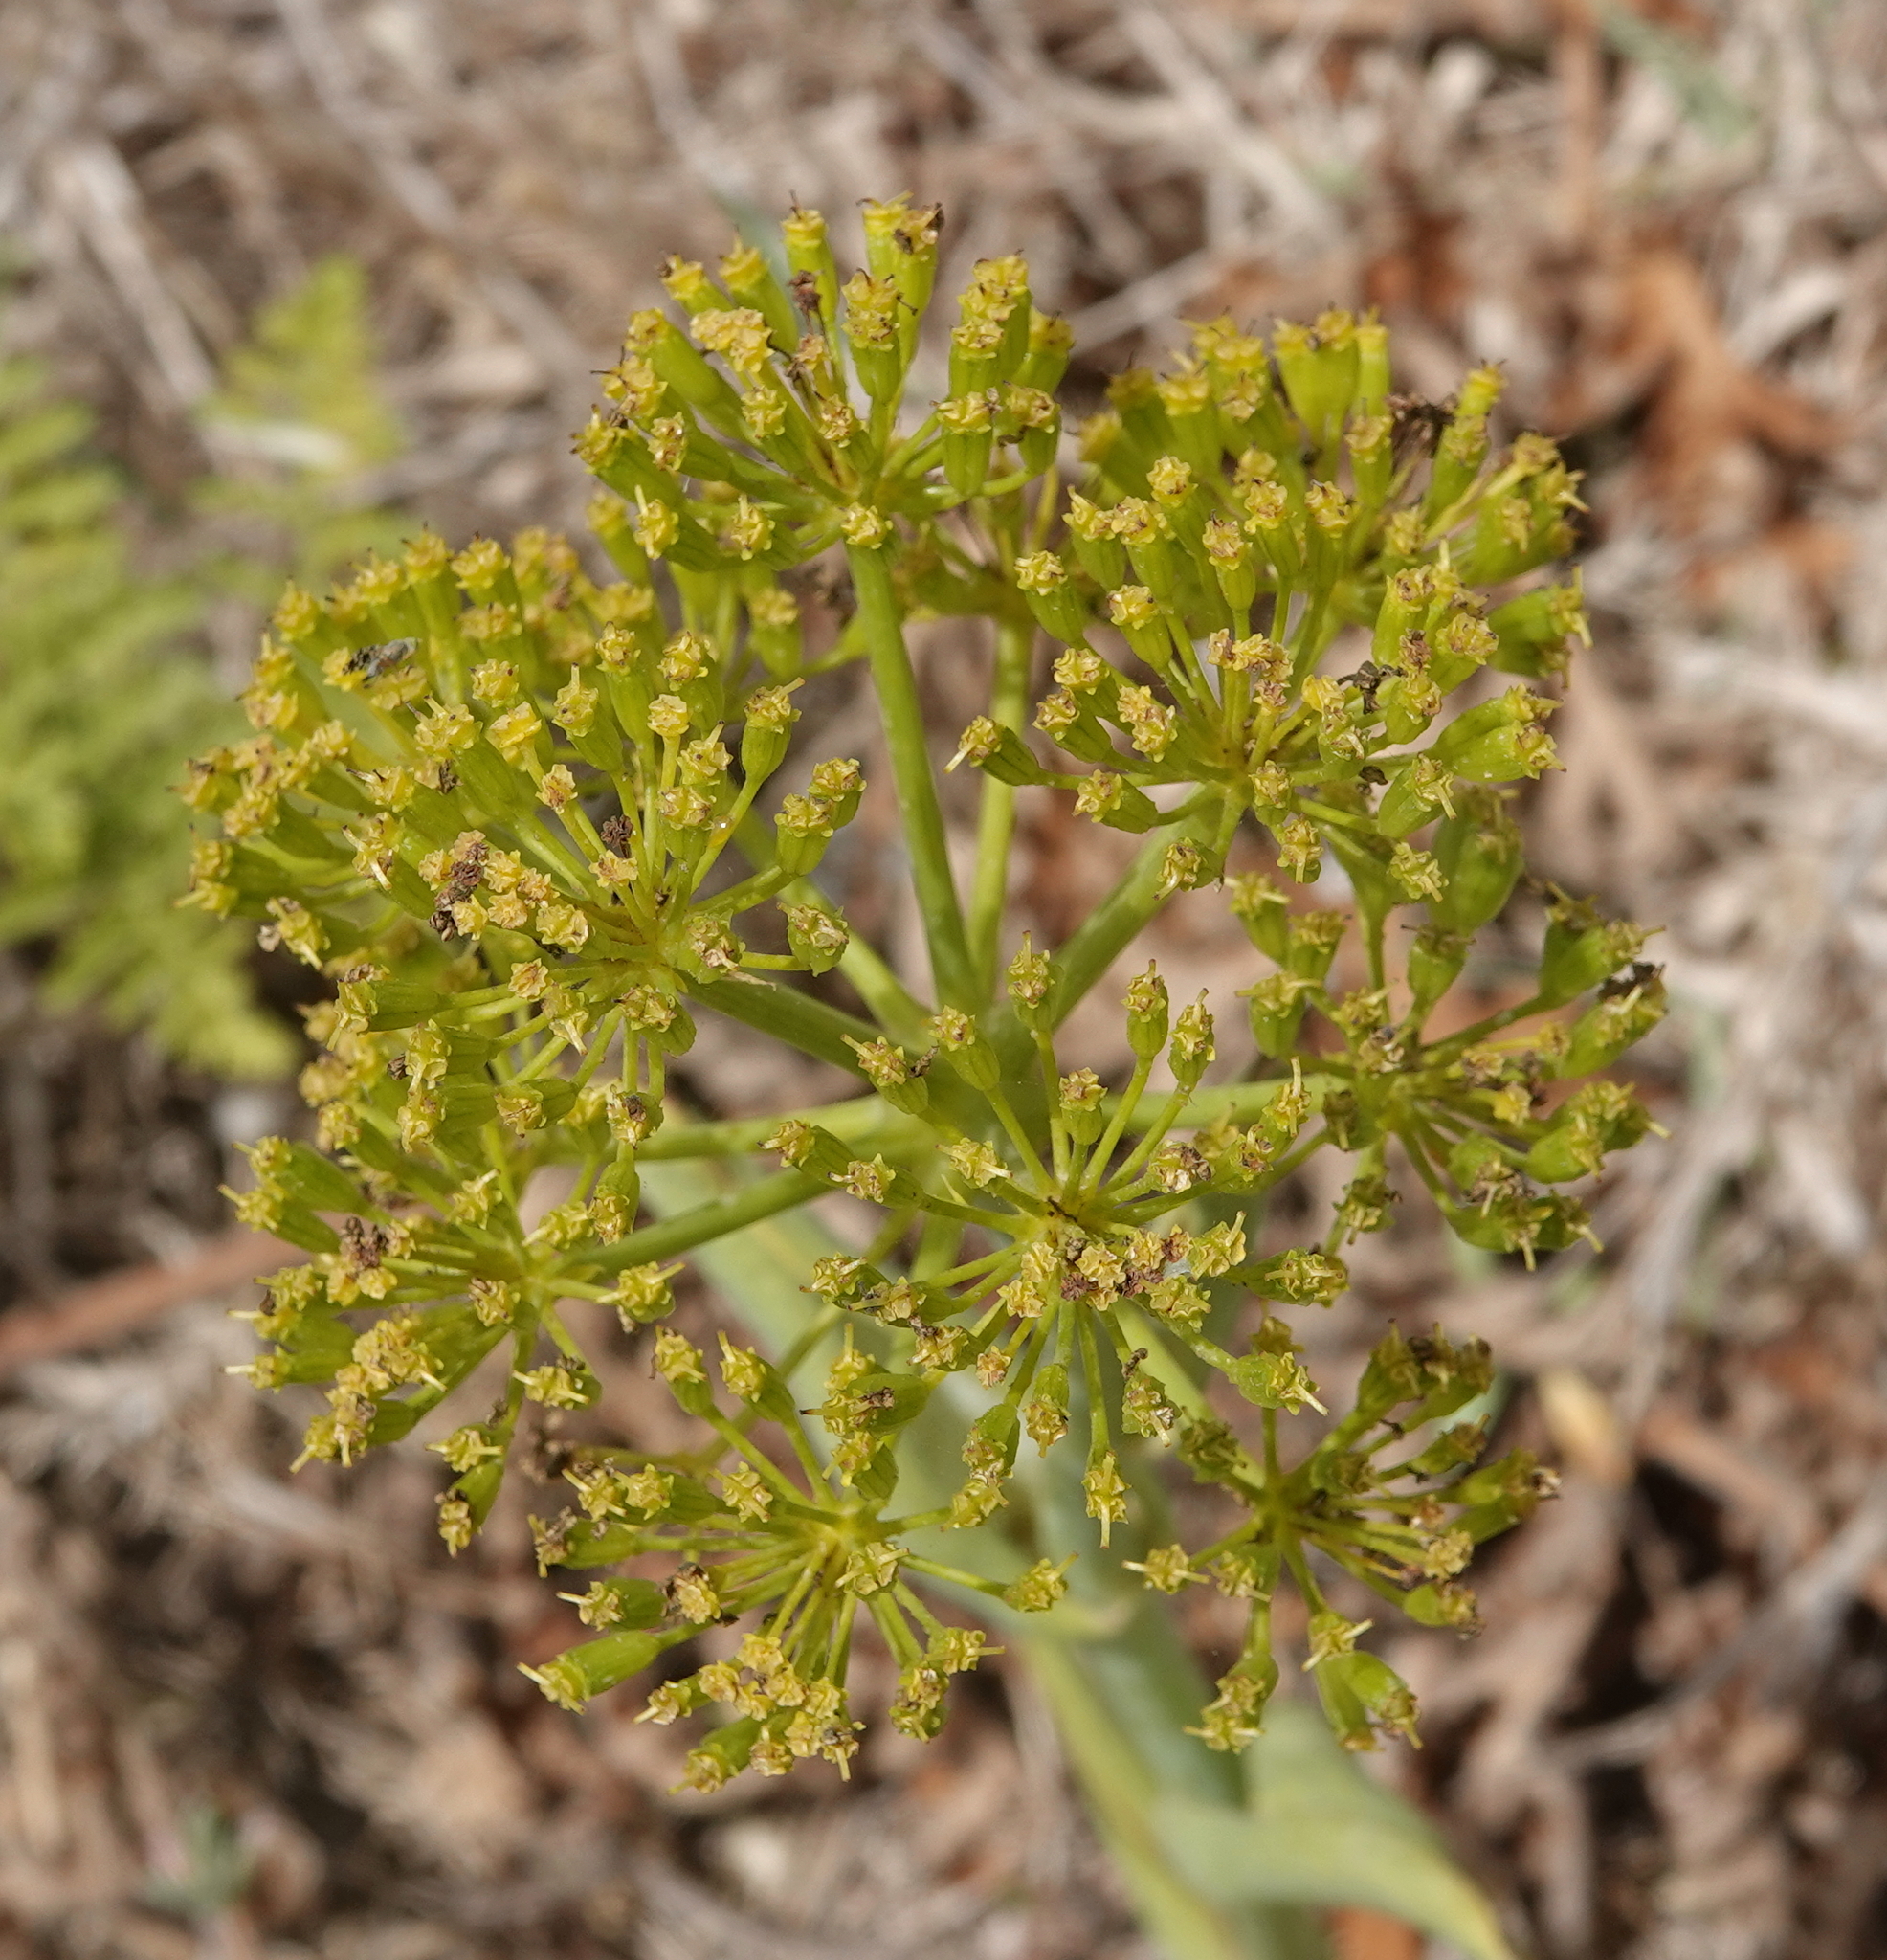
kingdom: Plantae
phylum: Tracheophyta
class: Magnoliopsida
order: Apiales
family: Apiaceae
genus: Thapsia
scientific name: Thapsia villosa
